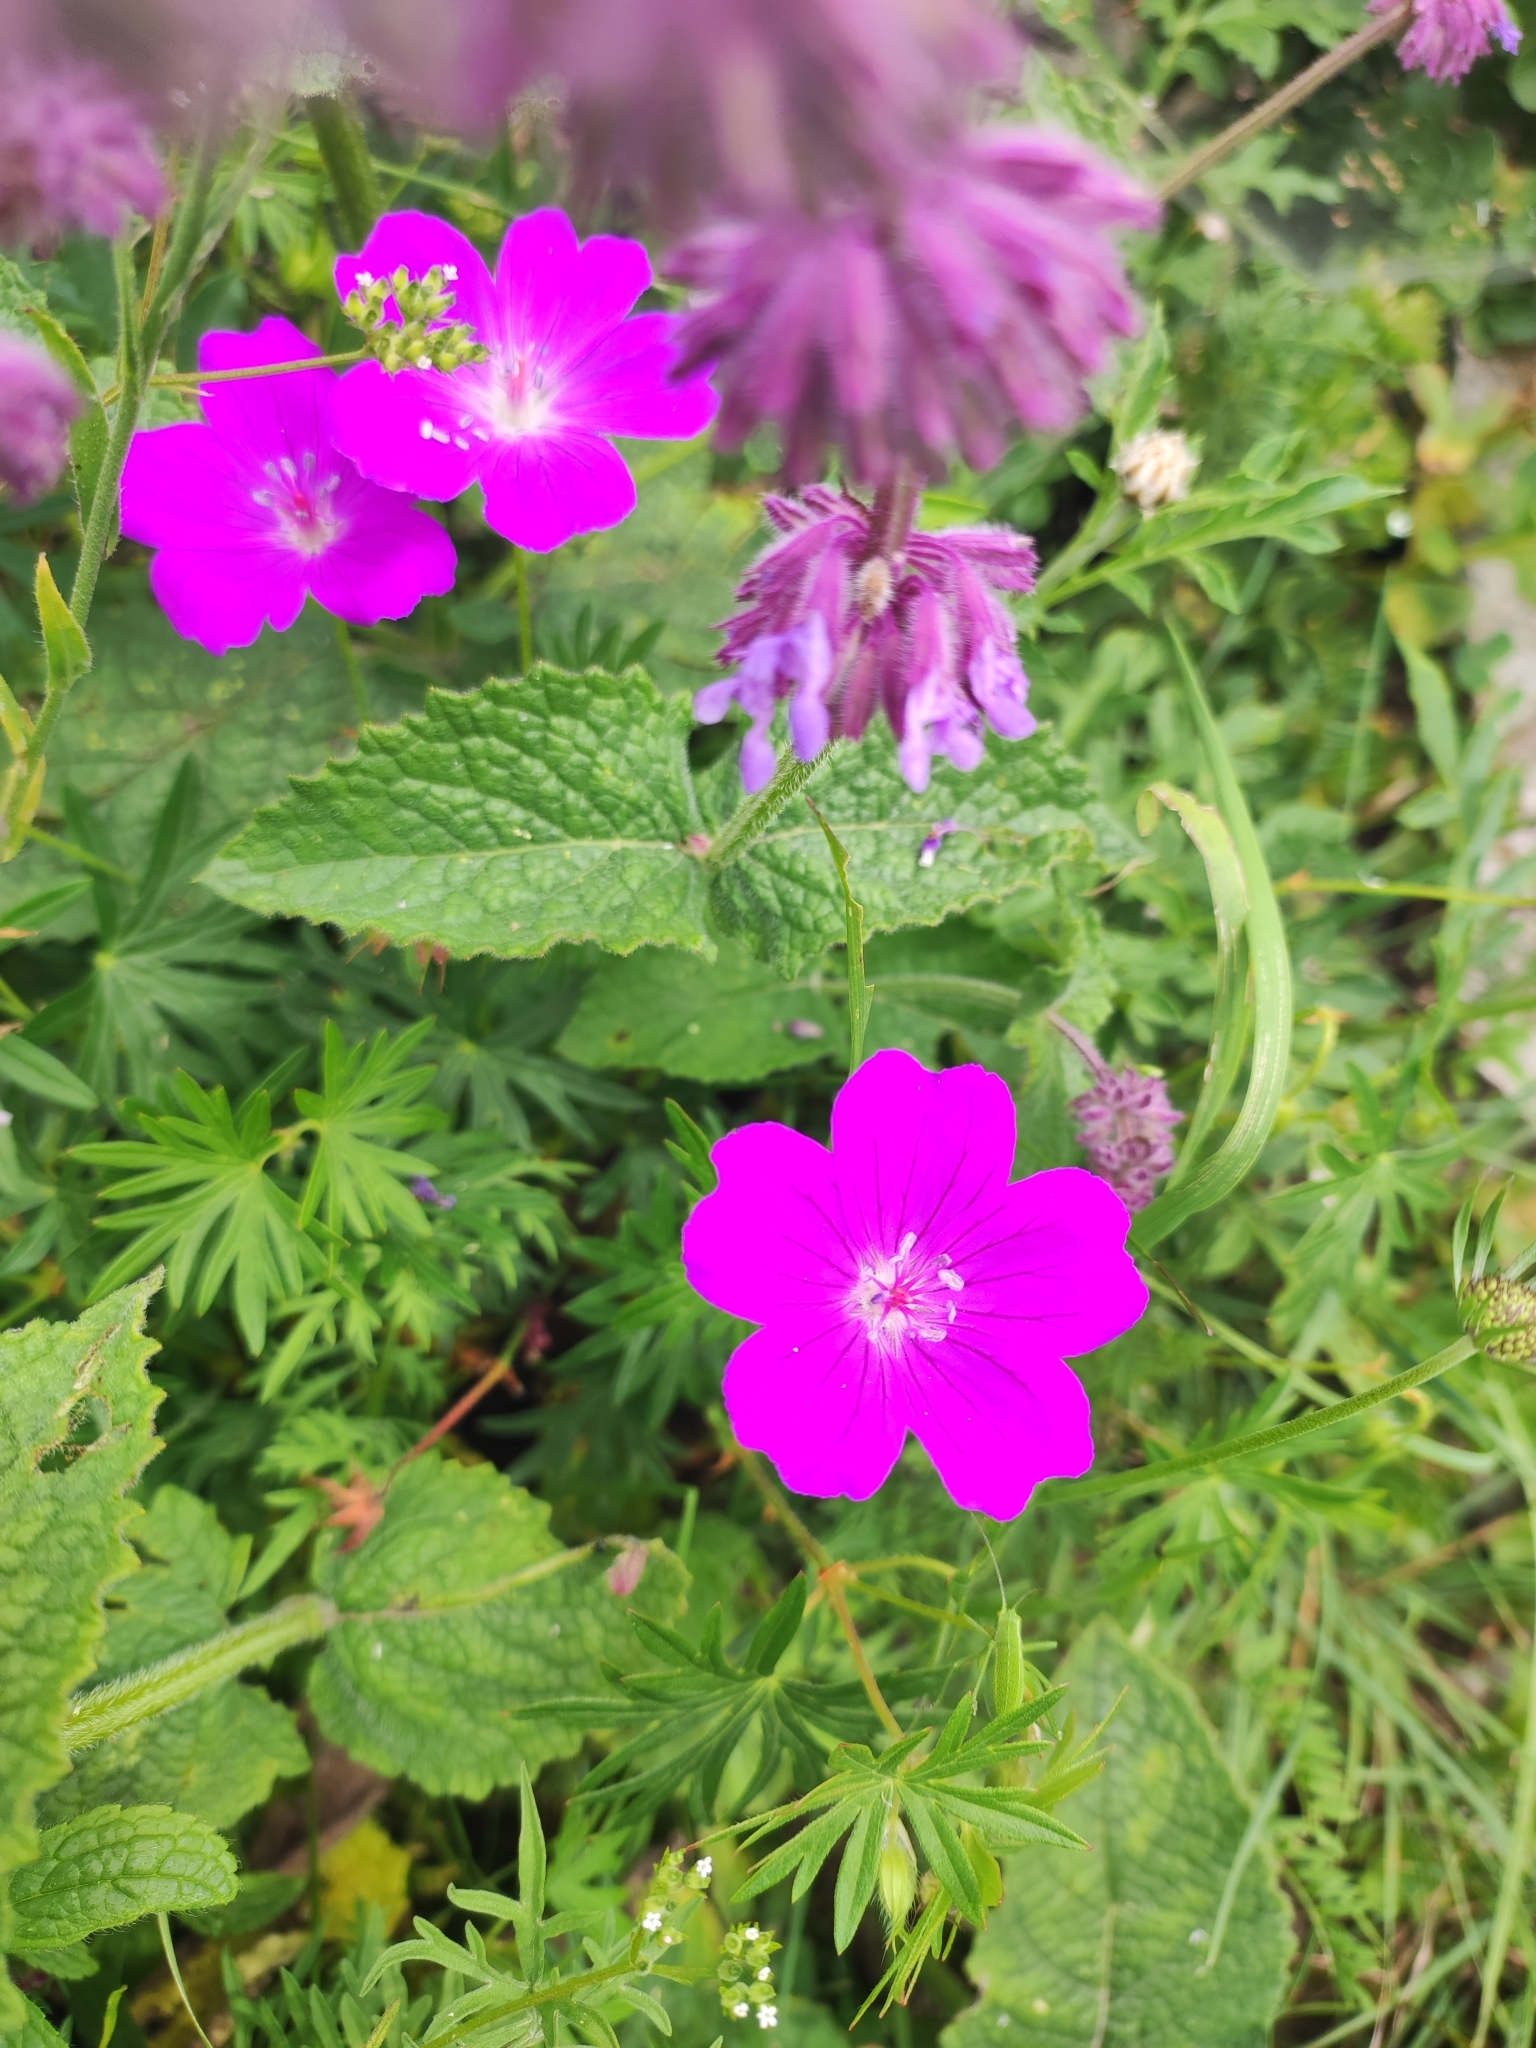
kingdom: Plantae
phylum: Tracheophyta
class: Magnoliopsida
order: Geraniales
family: Geraniaceae
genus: Geranium
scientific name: Geranium sanguineum
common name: Bloody crane's-bill
